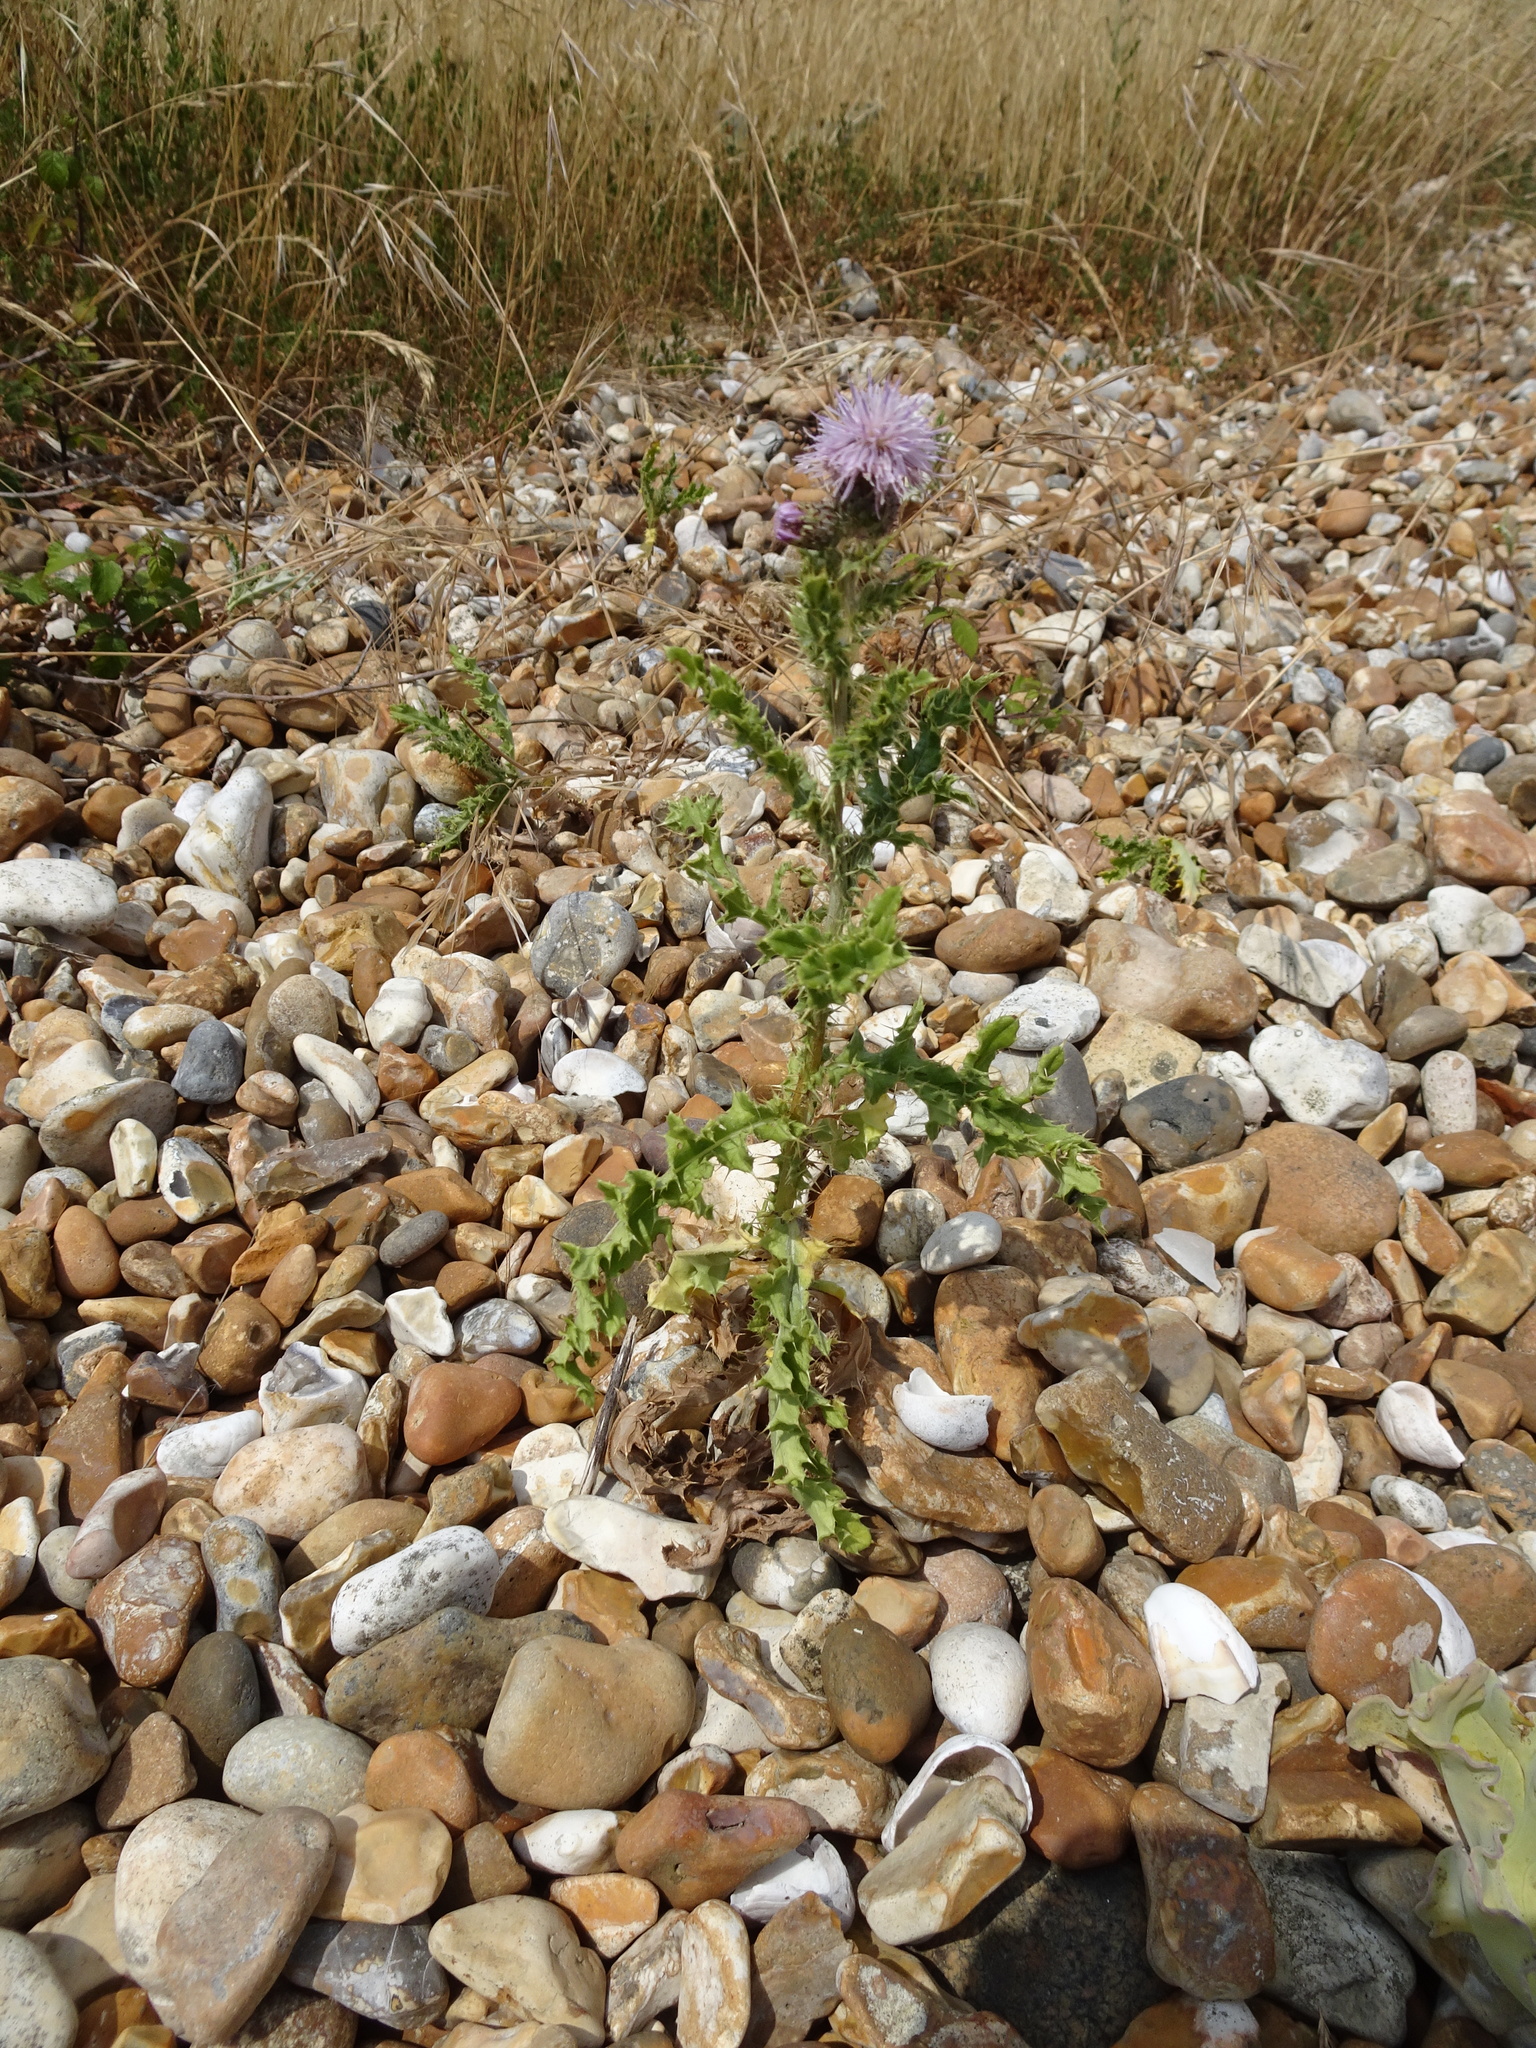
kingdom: Plantae
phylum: Tracheophyta
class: Magnoliopsida
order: Asterales
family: Asteraceae
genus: Cirsium
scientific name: Cirsium arvense
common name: Creeping thistle
